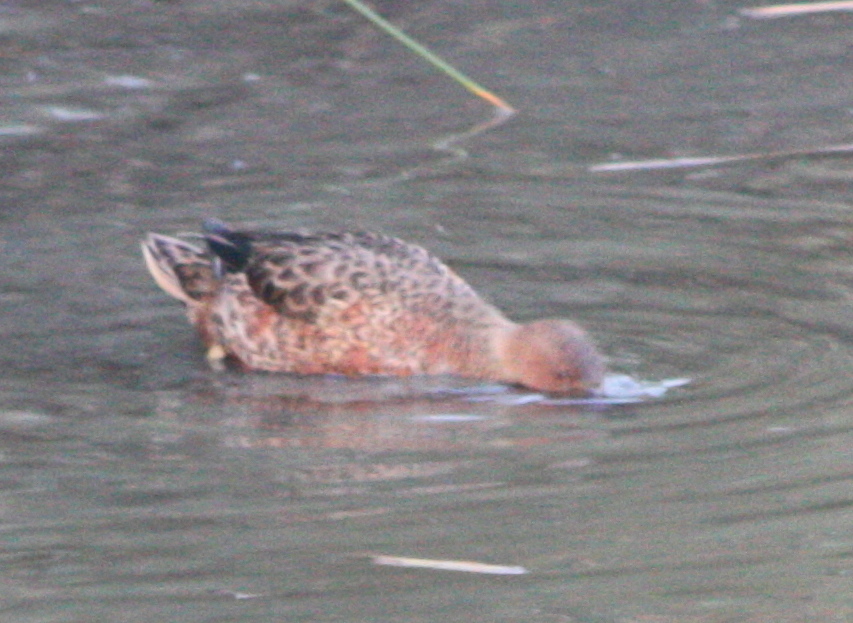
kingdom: Animalia
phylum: Chordata
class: Aves
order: Anseriformes
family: Anatidae
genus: Spatula
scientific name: Spatula cyanoptera
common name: Cinnamon teal
